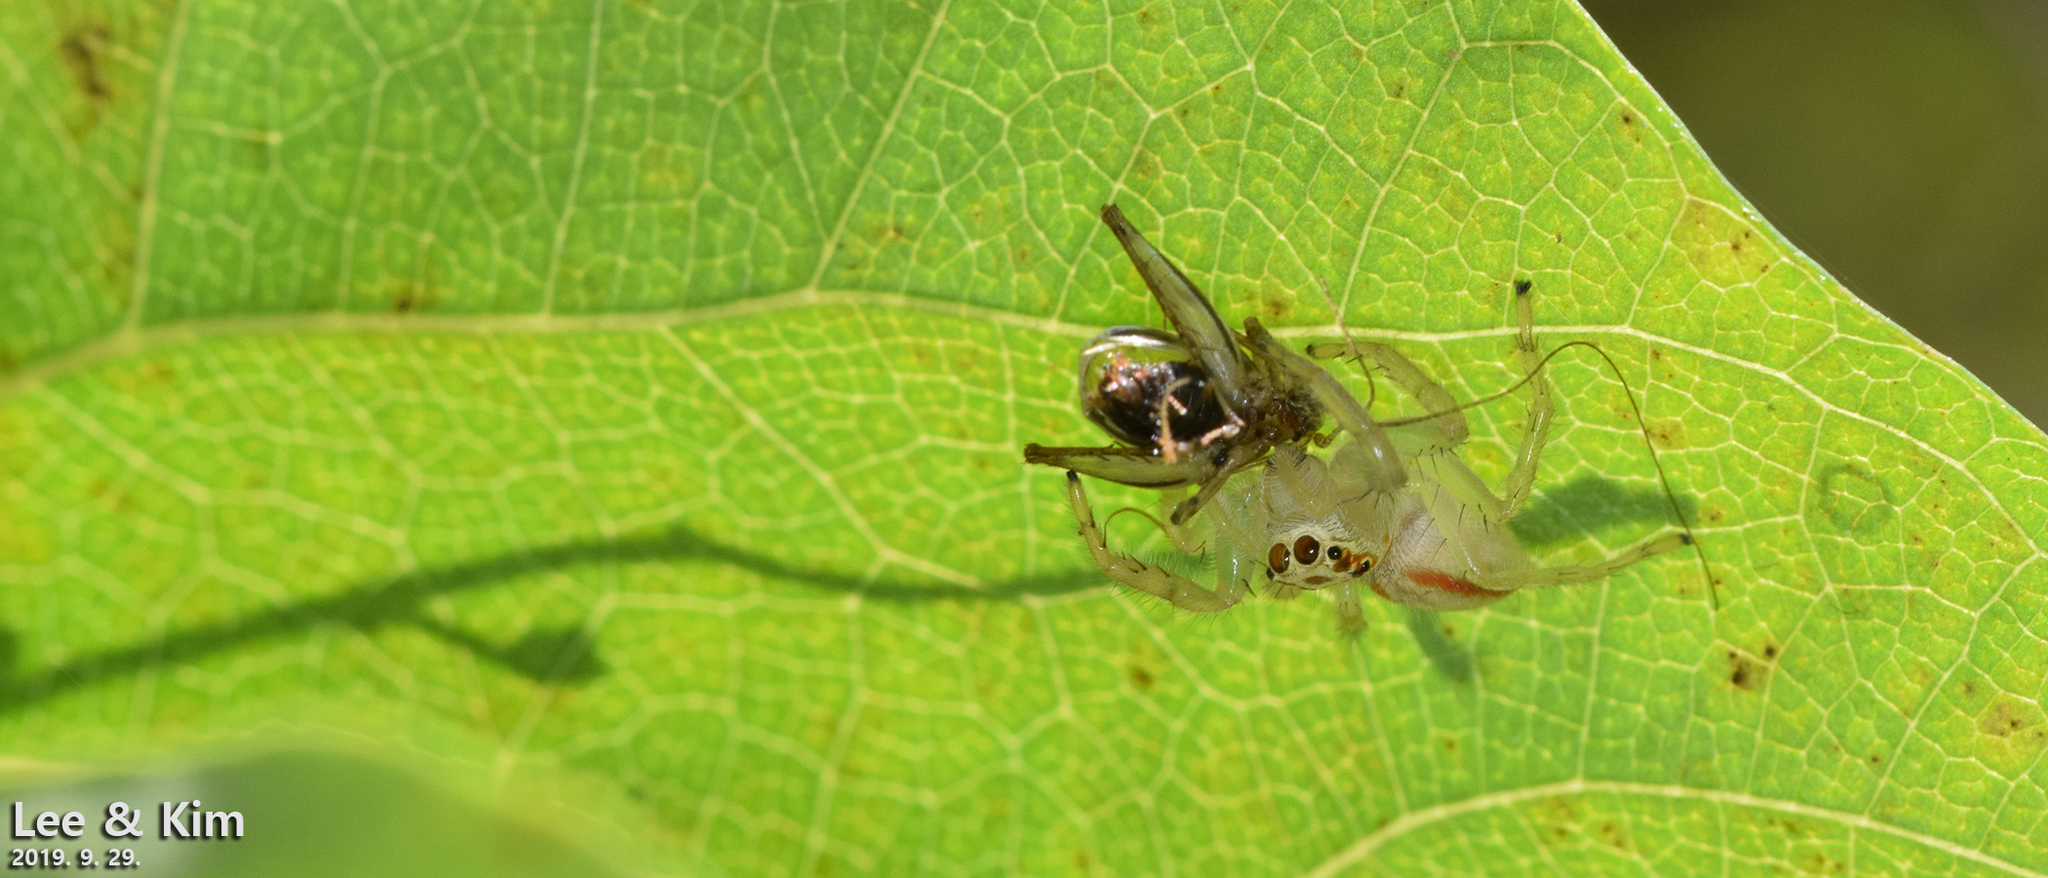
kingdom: Animalia
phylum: Arthropoda
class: Arachnida
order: Araneae
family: Salticidae
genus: Telamonia
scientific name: Telamonia vlijmi
